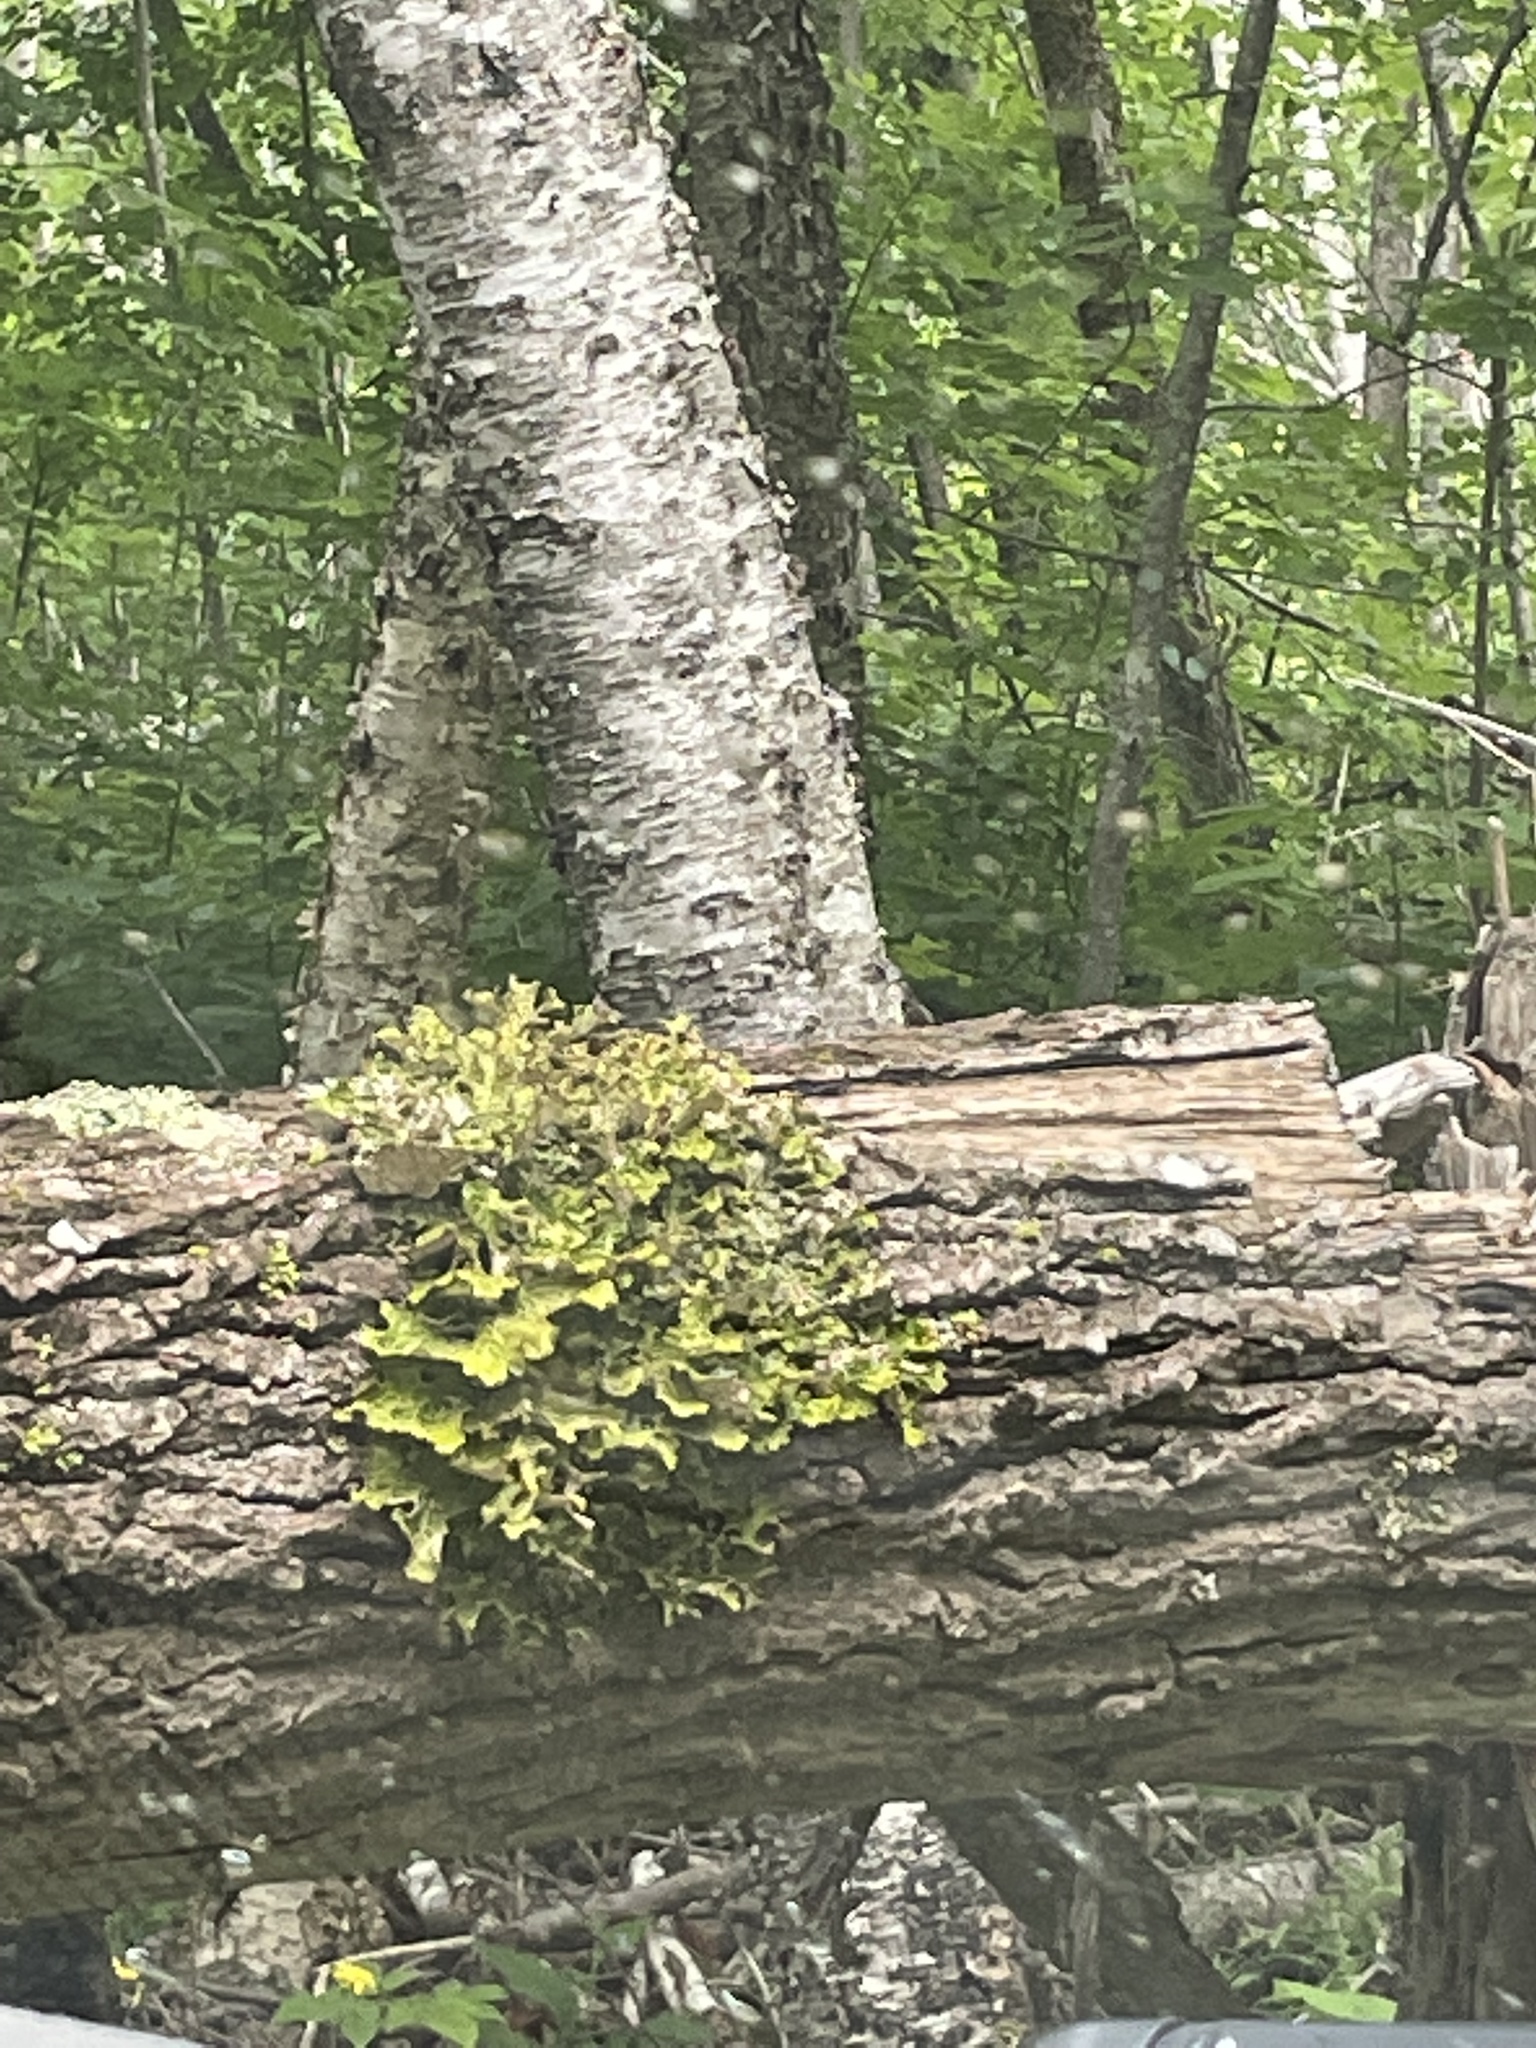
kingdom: Fungi
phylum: Ascomycota
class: Lecanoromycetes
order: Peltigerales
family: Lobariaceae
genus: Lobaria
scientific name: Lobaria pulmonaria
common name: Lungwort
